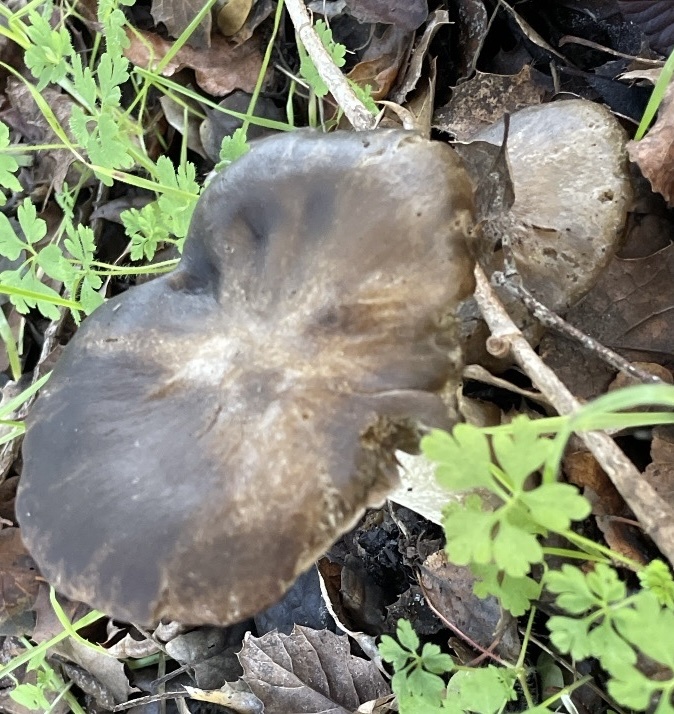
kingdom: Fungi
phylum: Basidiomycota
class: Agaricomycetes
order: Agaricales
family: Entolomataceae
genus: Entoloma
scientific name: Entoloma ferruginans
